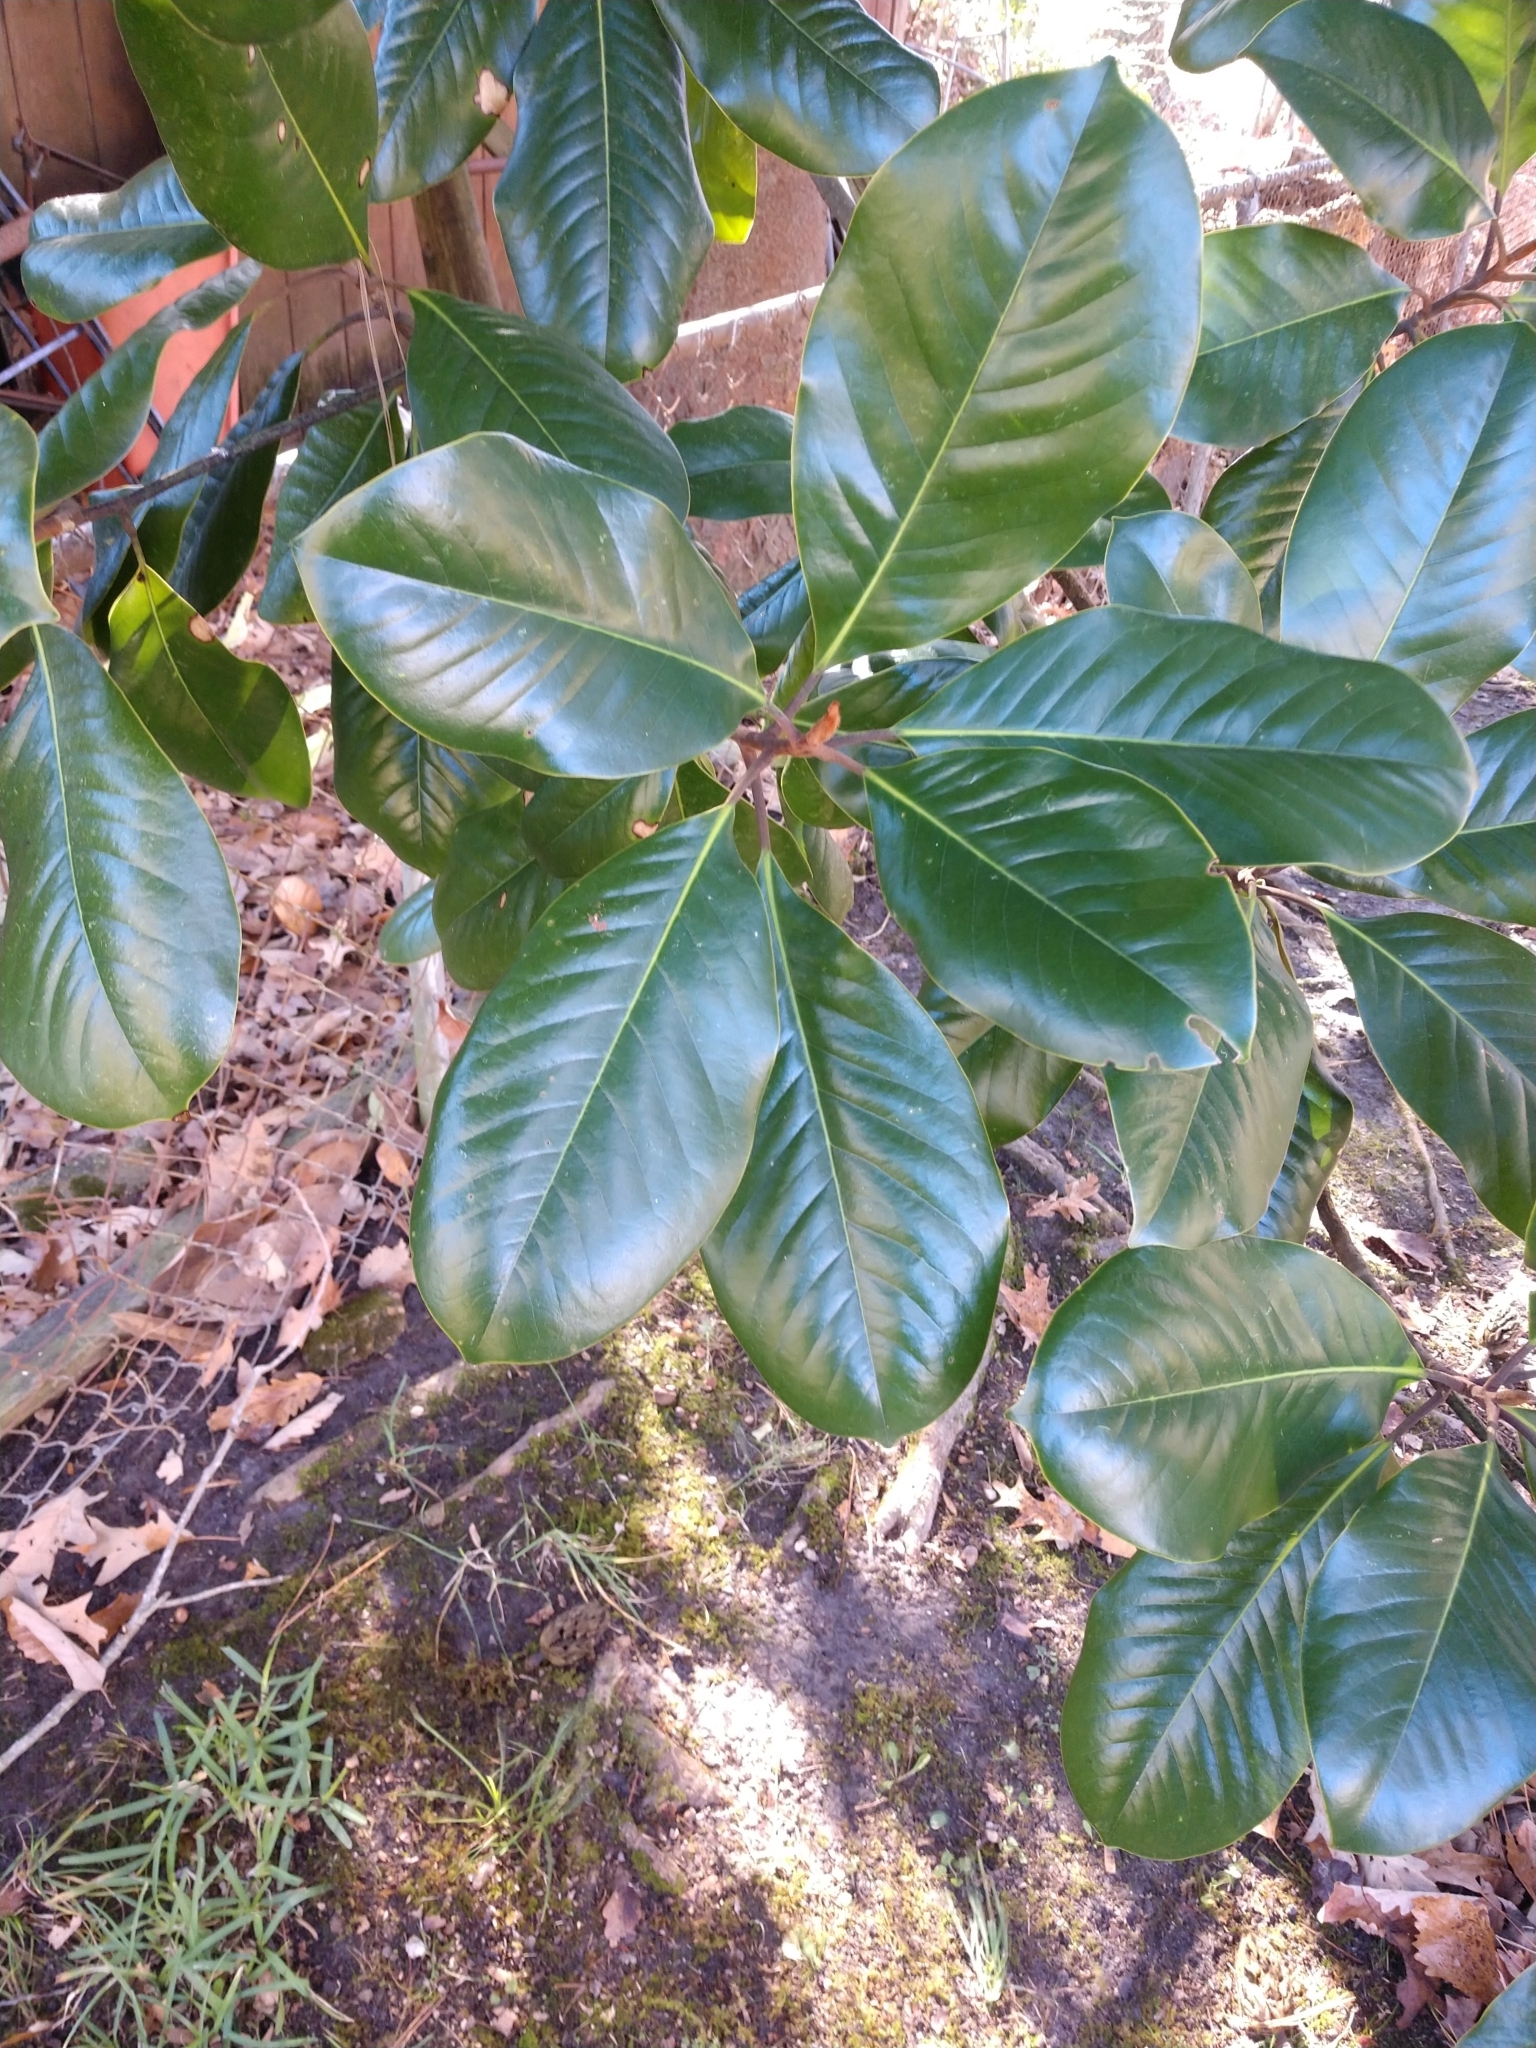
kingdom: Plantae
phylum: Tracheophyta
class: Magnoliopsida
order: Magnoliales
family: Magnoliaceae
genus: Magnolia
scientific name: Magnolia grandiflora
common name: Southern magnolia
